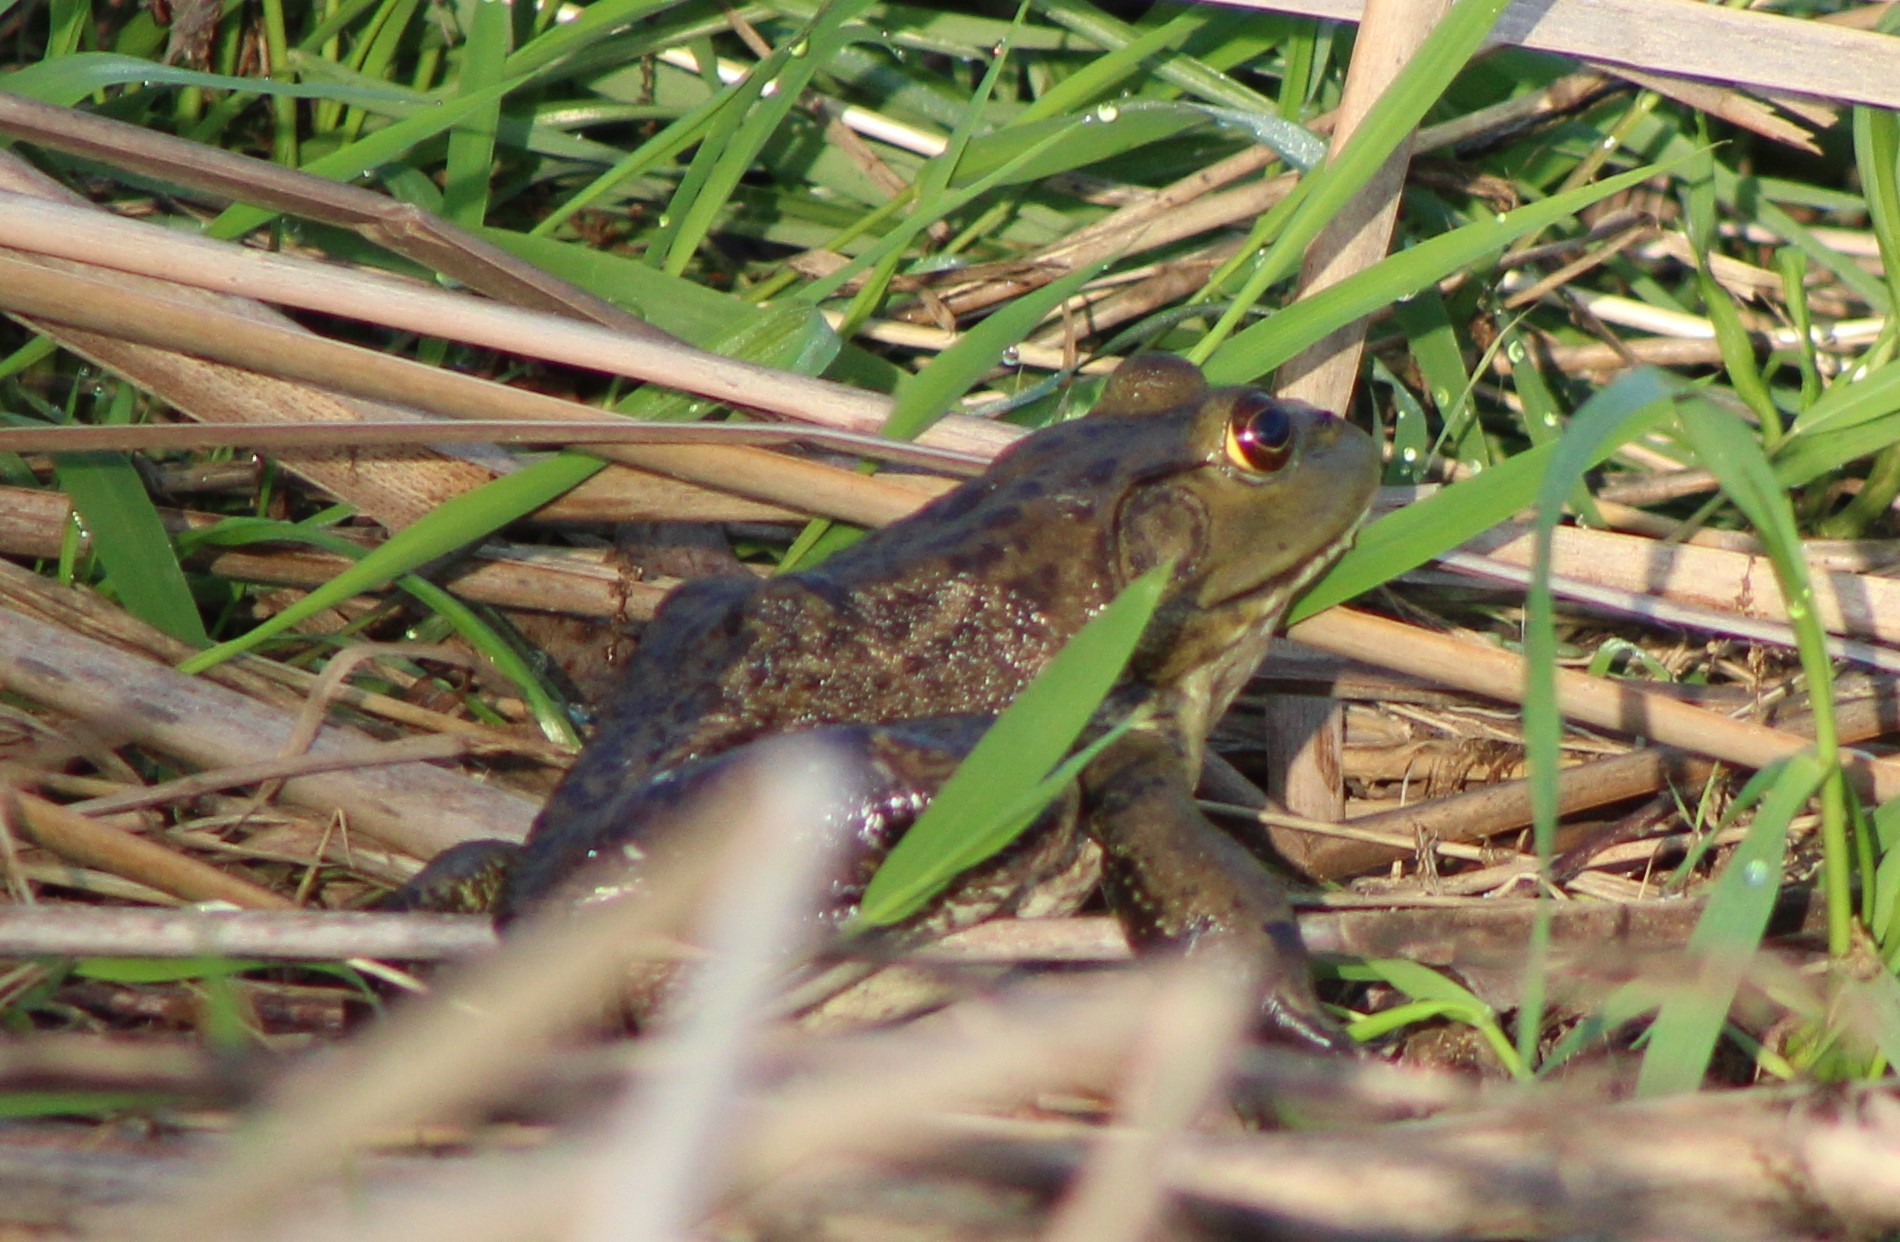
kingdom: Animalia
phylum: Chordata
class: Amphibia
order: Anura
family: Ranidae
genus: Lithobates
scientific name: Lithobates catesbeianus
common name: American bullfrog
